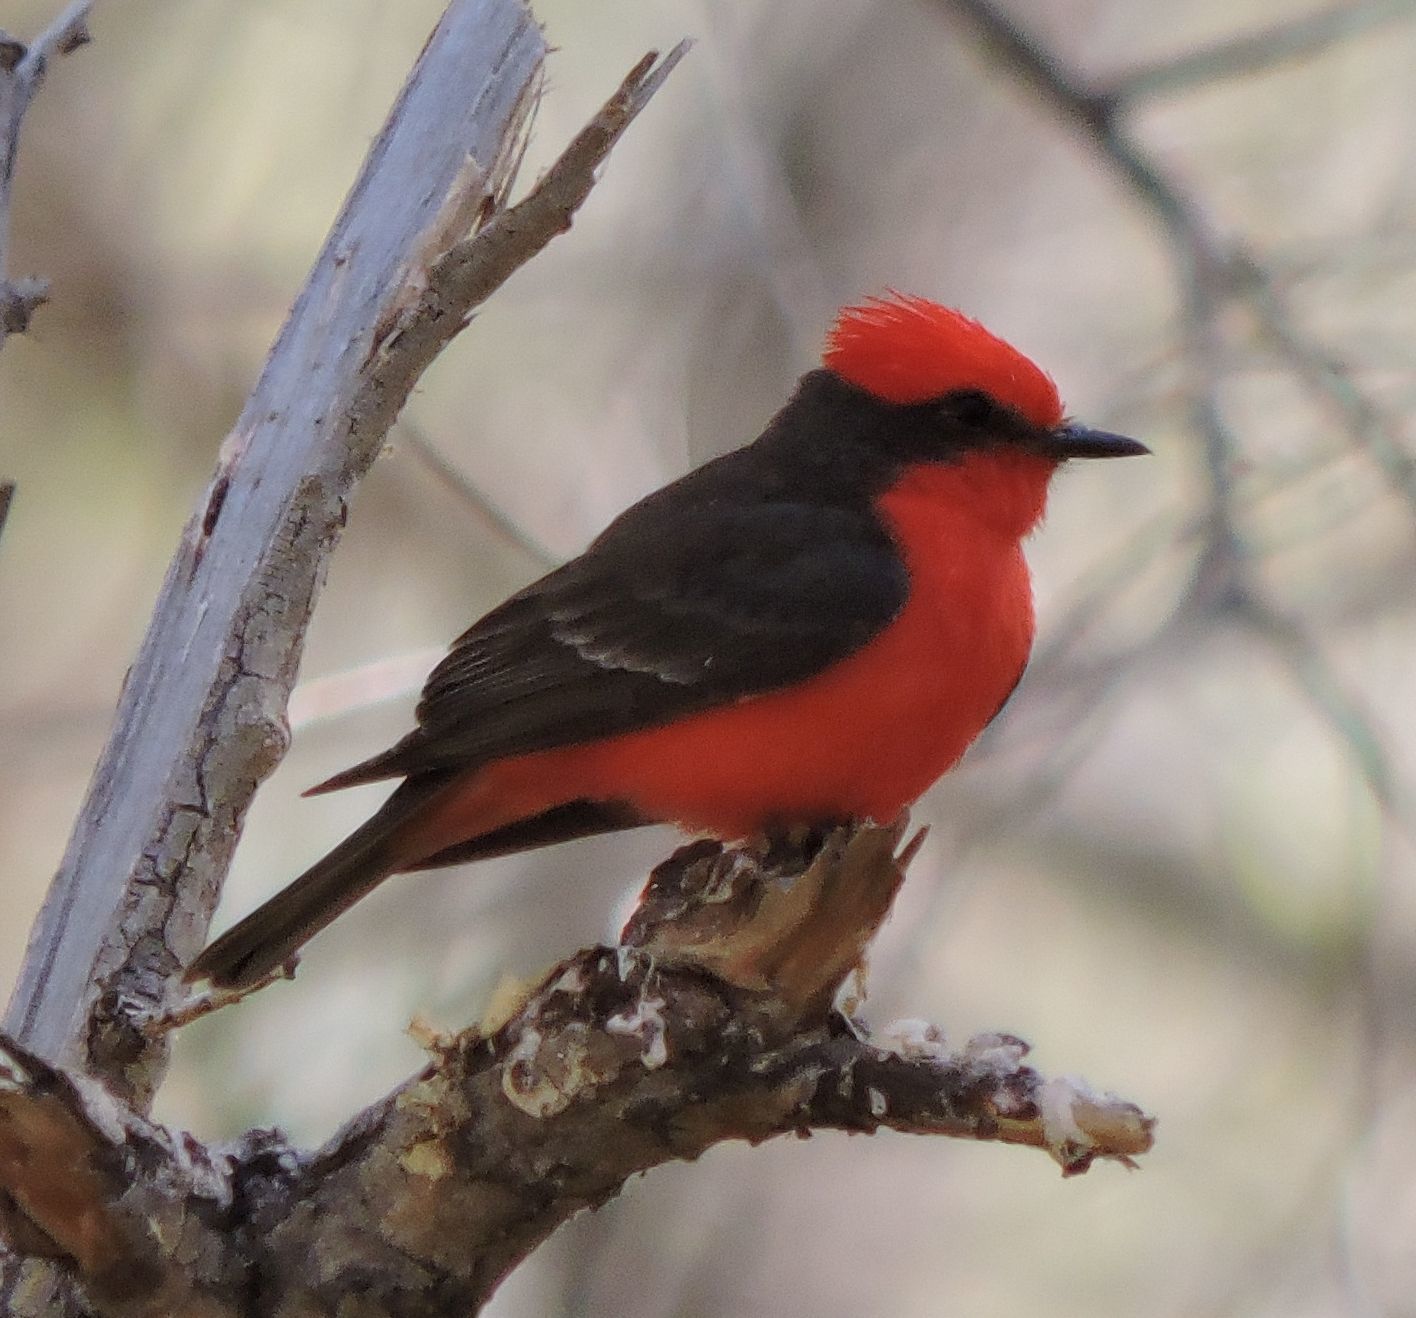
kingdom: Animalia
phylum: Chordata
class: Aves
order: Passeriformes
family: Tyrannidae
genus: Pyrocephalus
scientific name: Pyrocephalus rubinus
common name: Vermilion flycatcher
